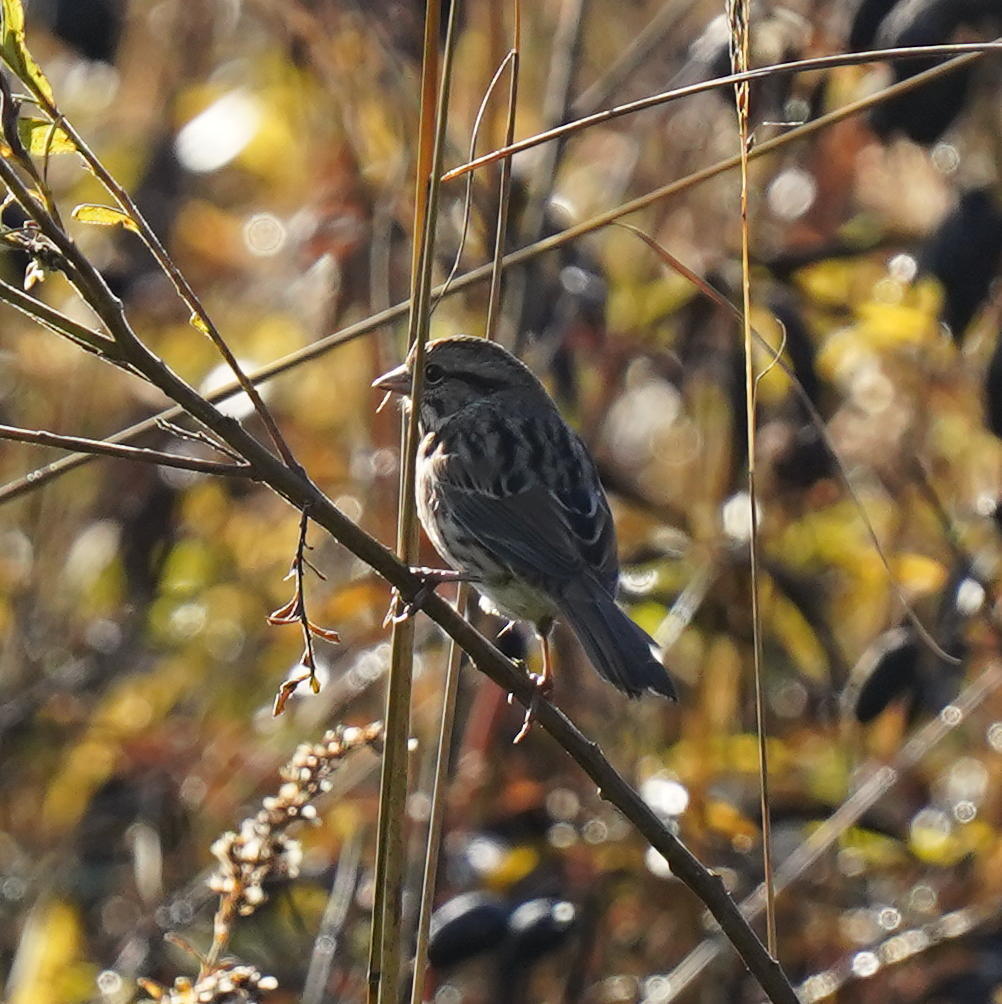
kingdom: Animalia
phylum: Chordata
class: Aves
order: Passeriformes
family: Passerellidae
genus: Melospiza
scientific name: Melospiza melodia
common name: Song sparrow
